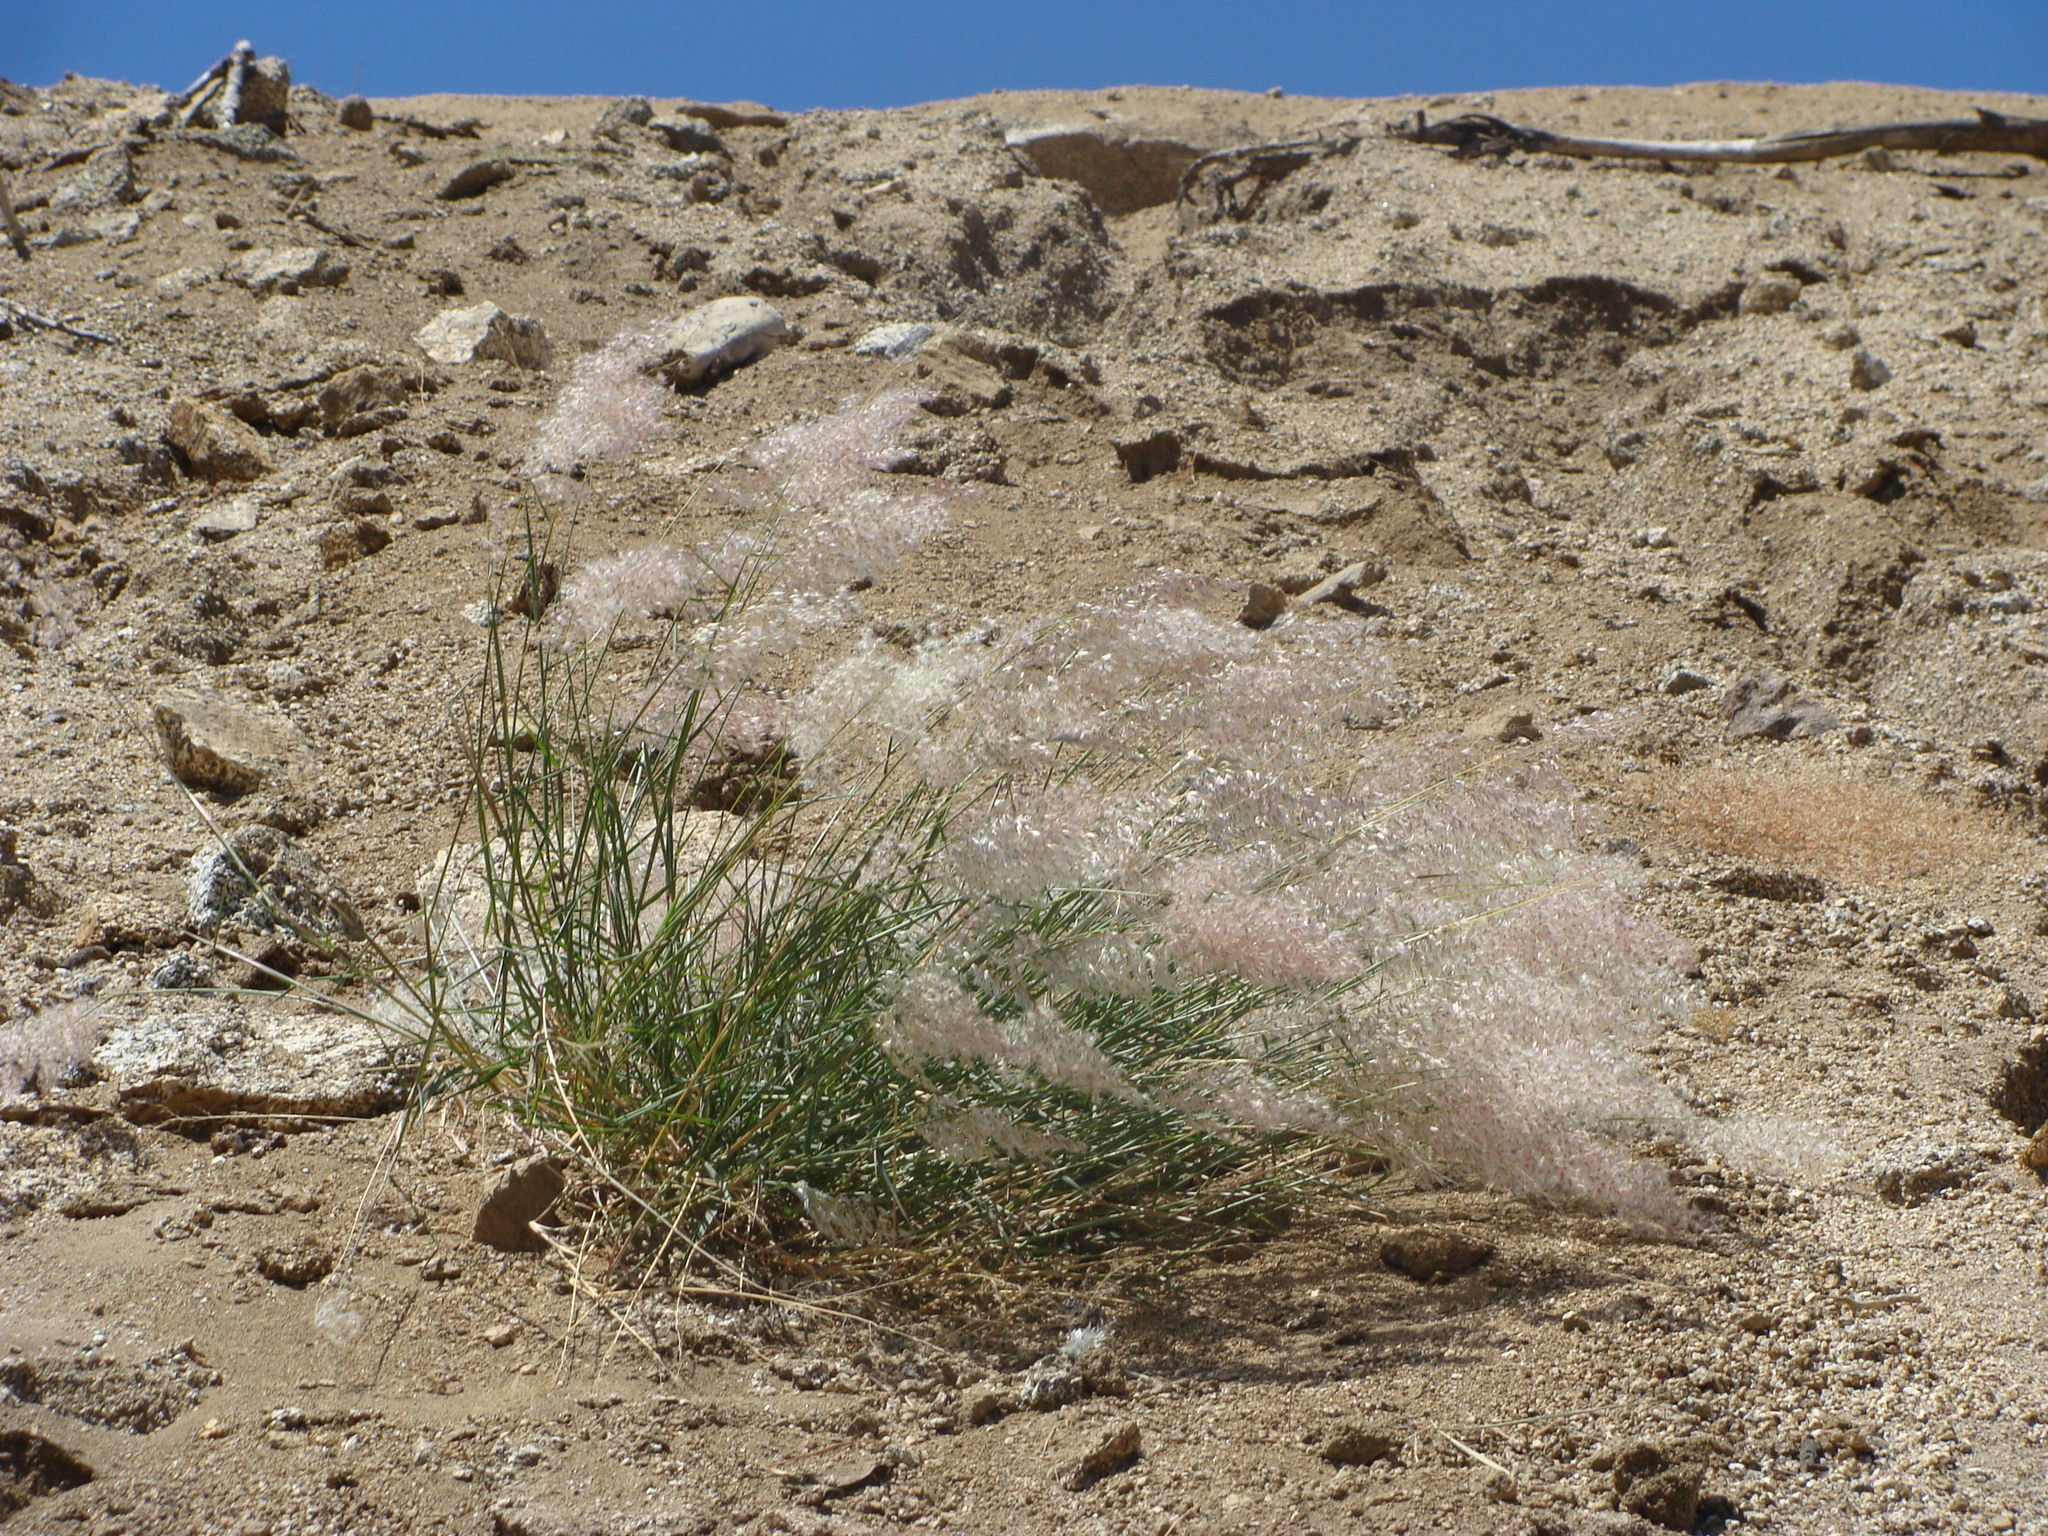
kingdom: Plantae
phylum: Tracheophyta
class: Liliopsida
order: Poales
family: Poaceae
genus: Melinis
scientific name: Melinis repens
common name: Rose natal grass
